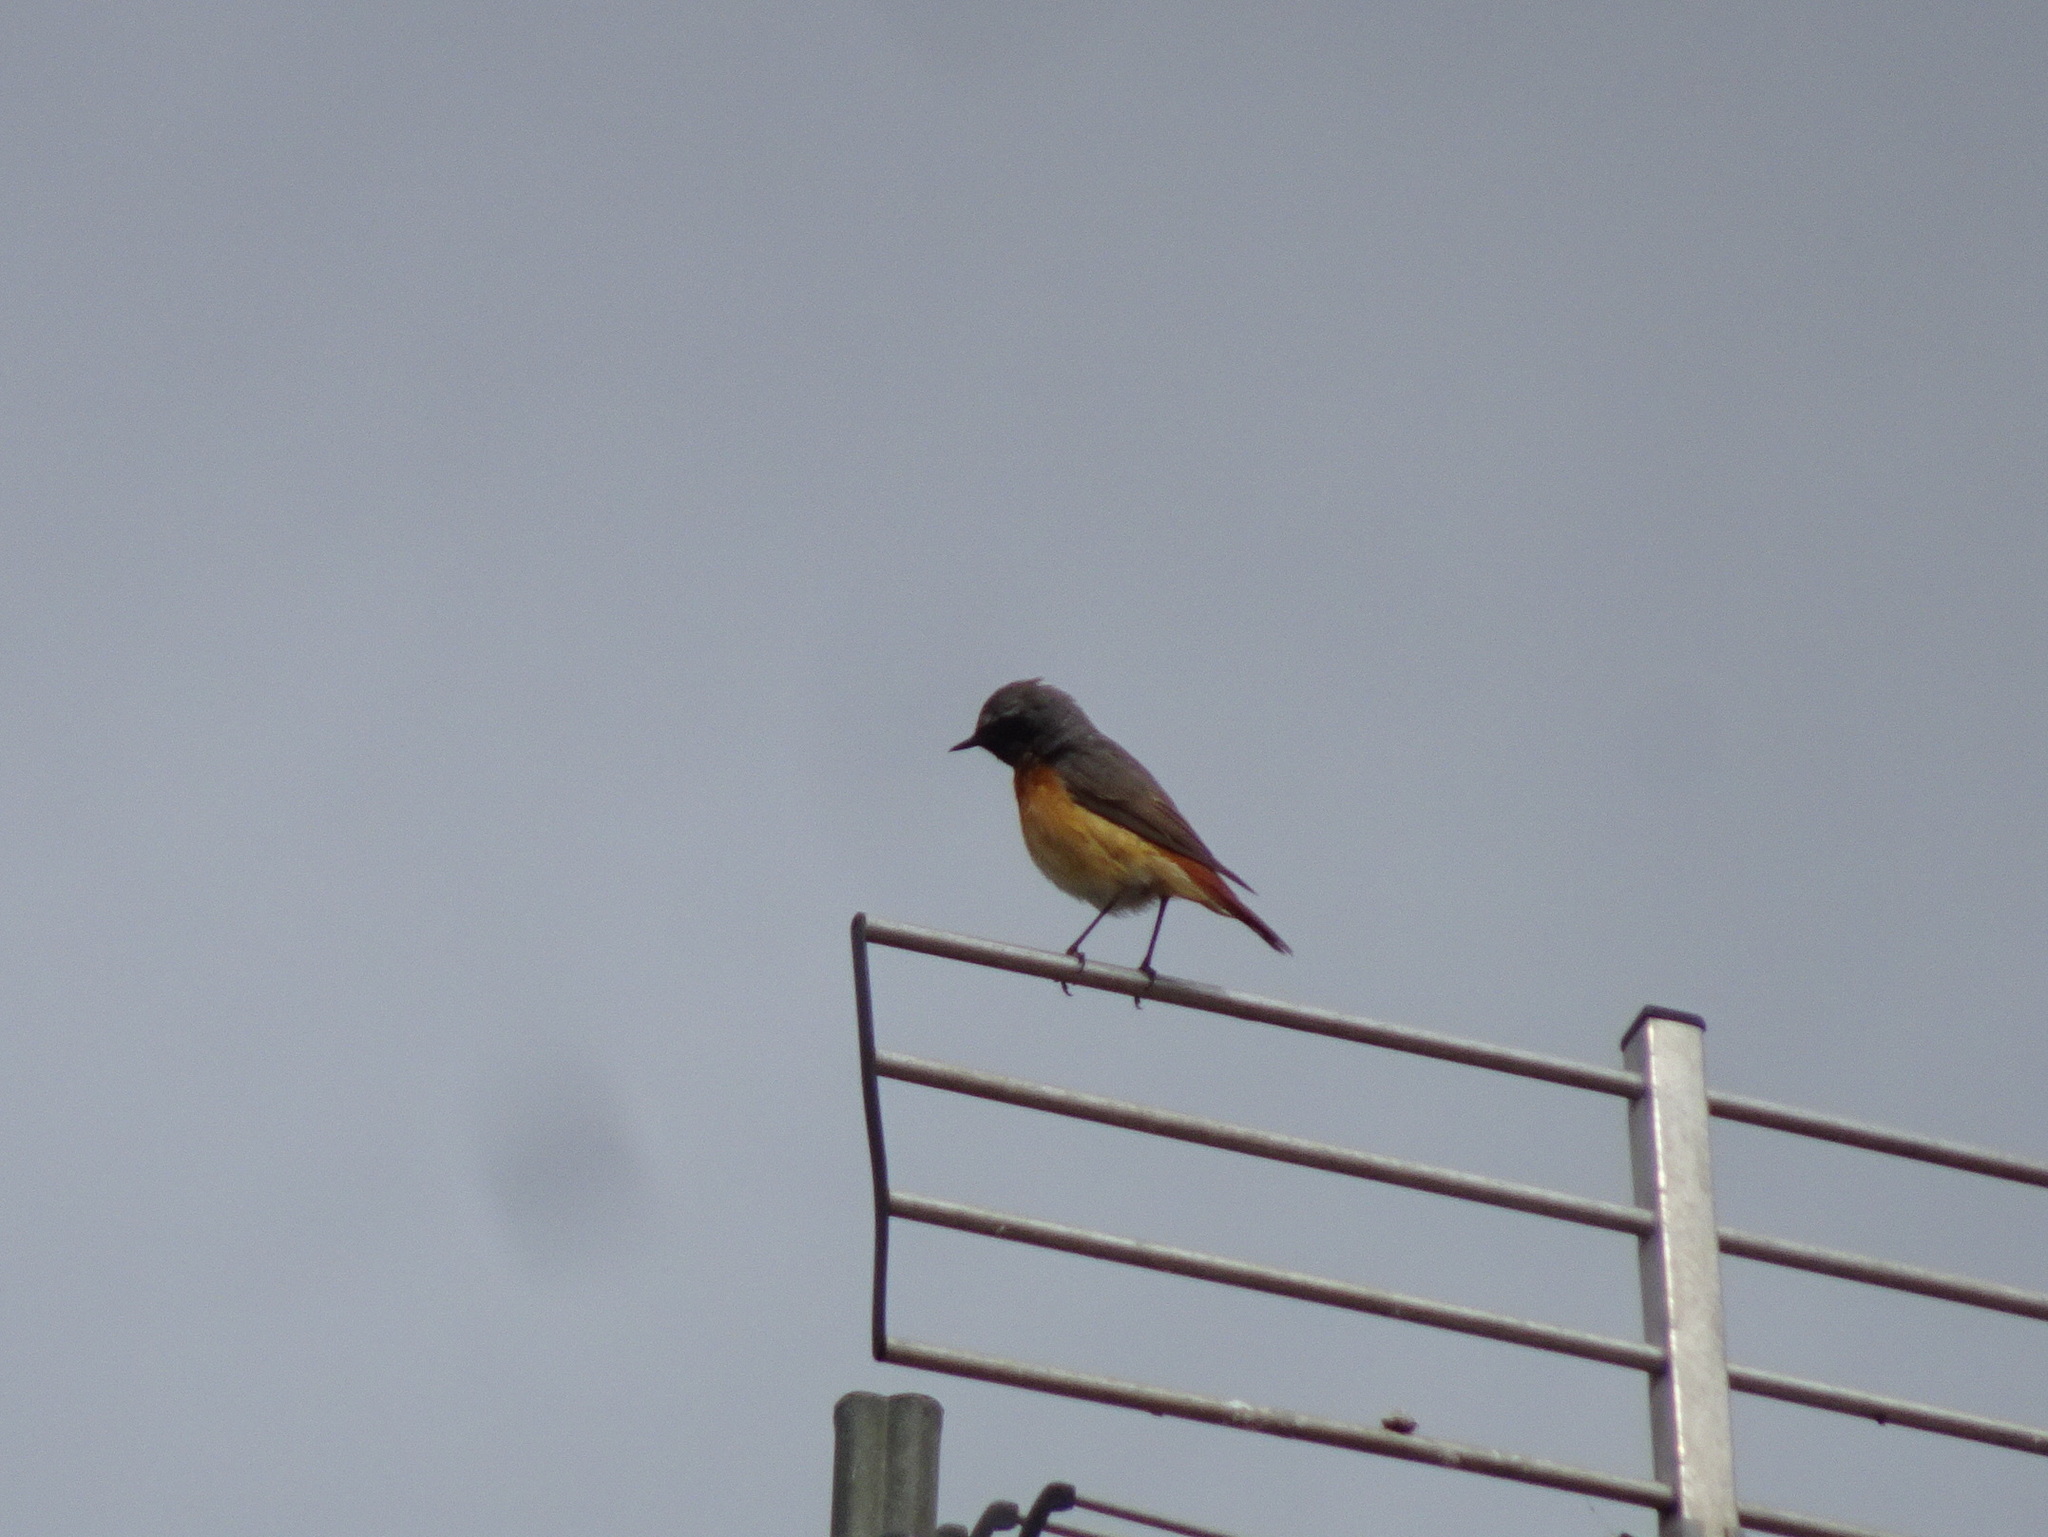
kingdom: Animalia
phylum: Chordata
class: Aves
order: Passeriformes
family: Muscicapidae
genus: Phoenicurus
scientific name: Phoenicurus phoenicurus
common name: Common redstart
